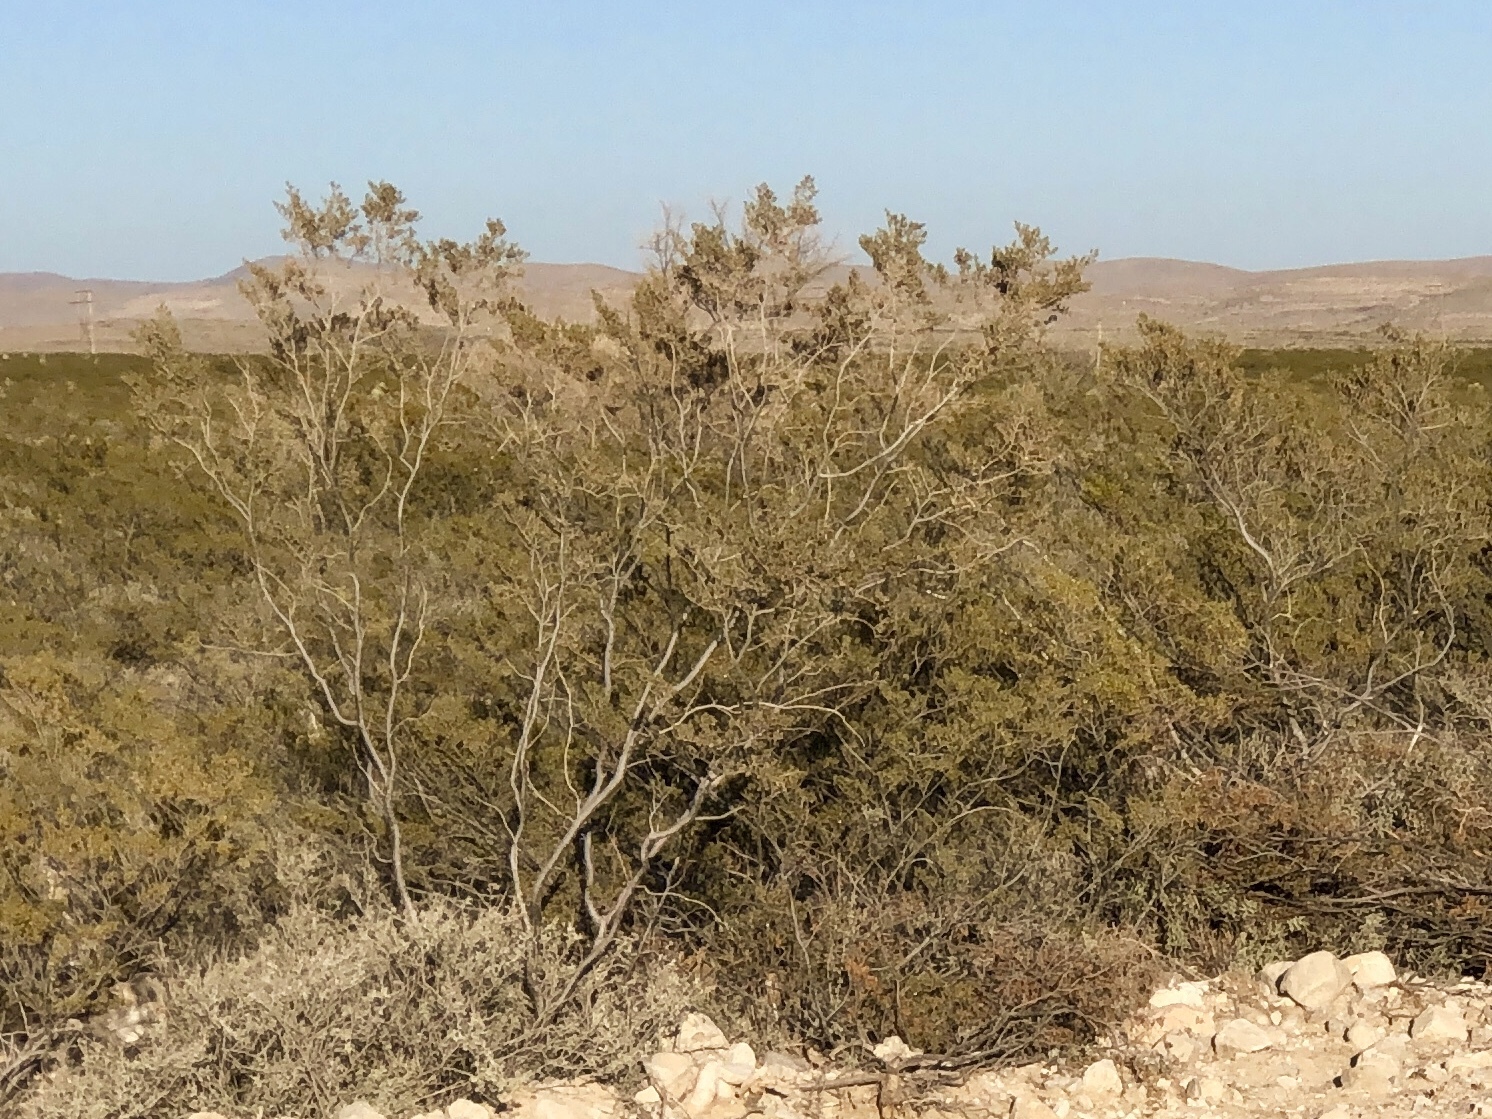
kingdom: Plantae
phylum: Tracheophyta
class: Magnoliopsida
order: Zygophyllales
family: Zygophyllaceae
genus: Larrea
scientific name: Larrea tridentata
